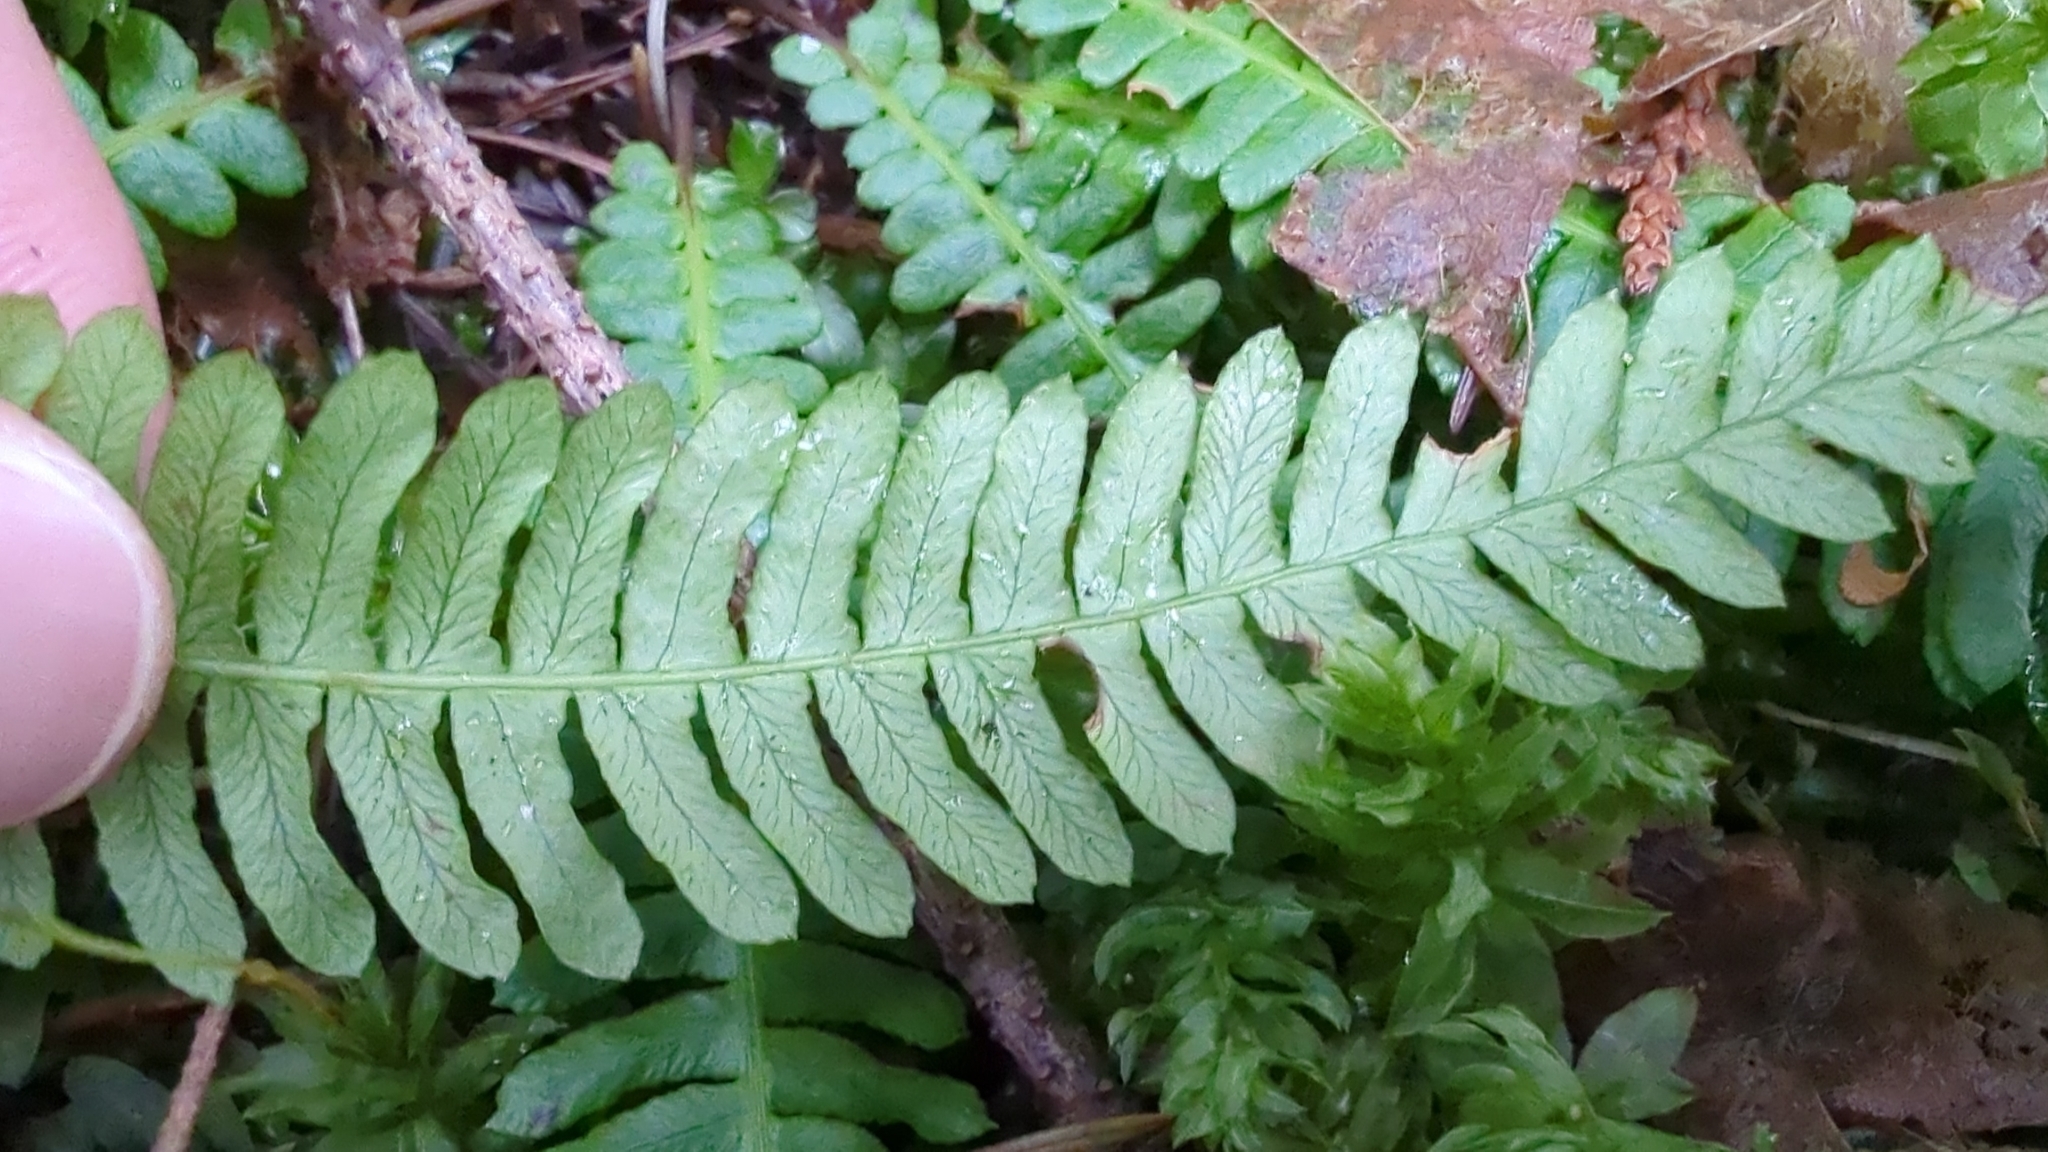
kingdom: Plantae
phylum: Tracheophyta
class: Polypodiopsida
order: Polypodiales
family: Blechnaceae
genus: Struthiopteris
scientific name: Struthiopteris spicant
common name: Deer fern
